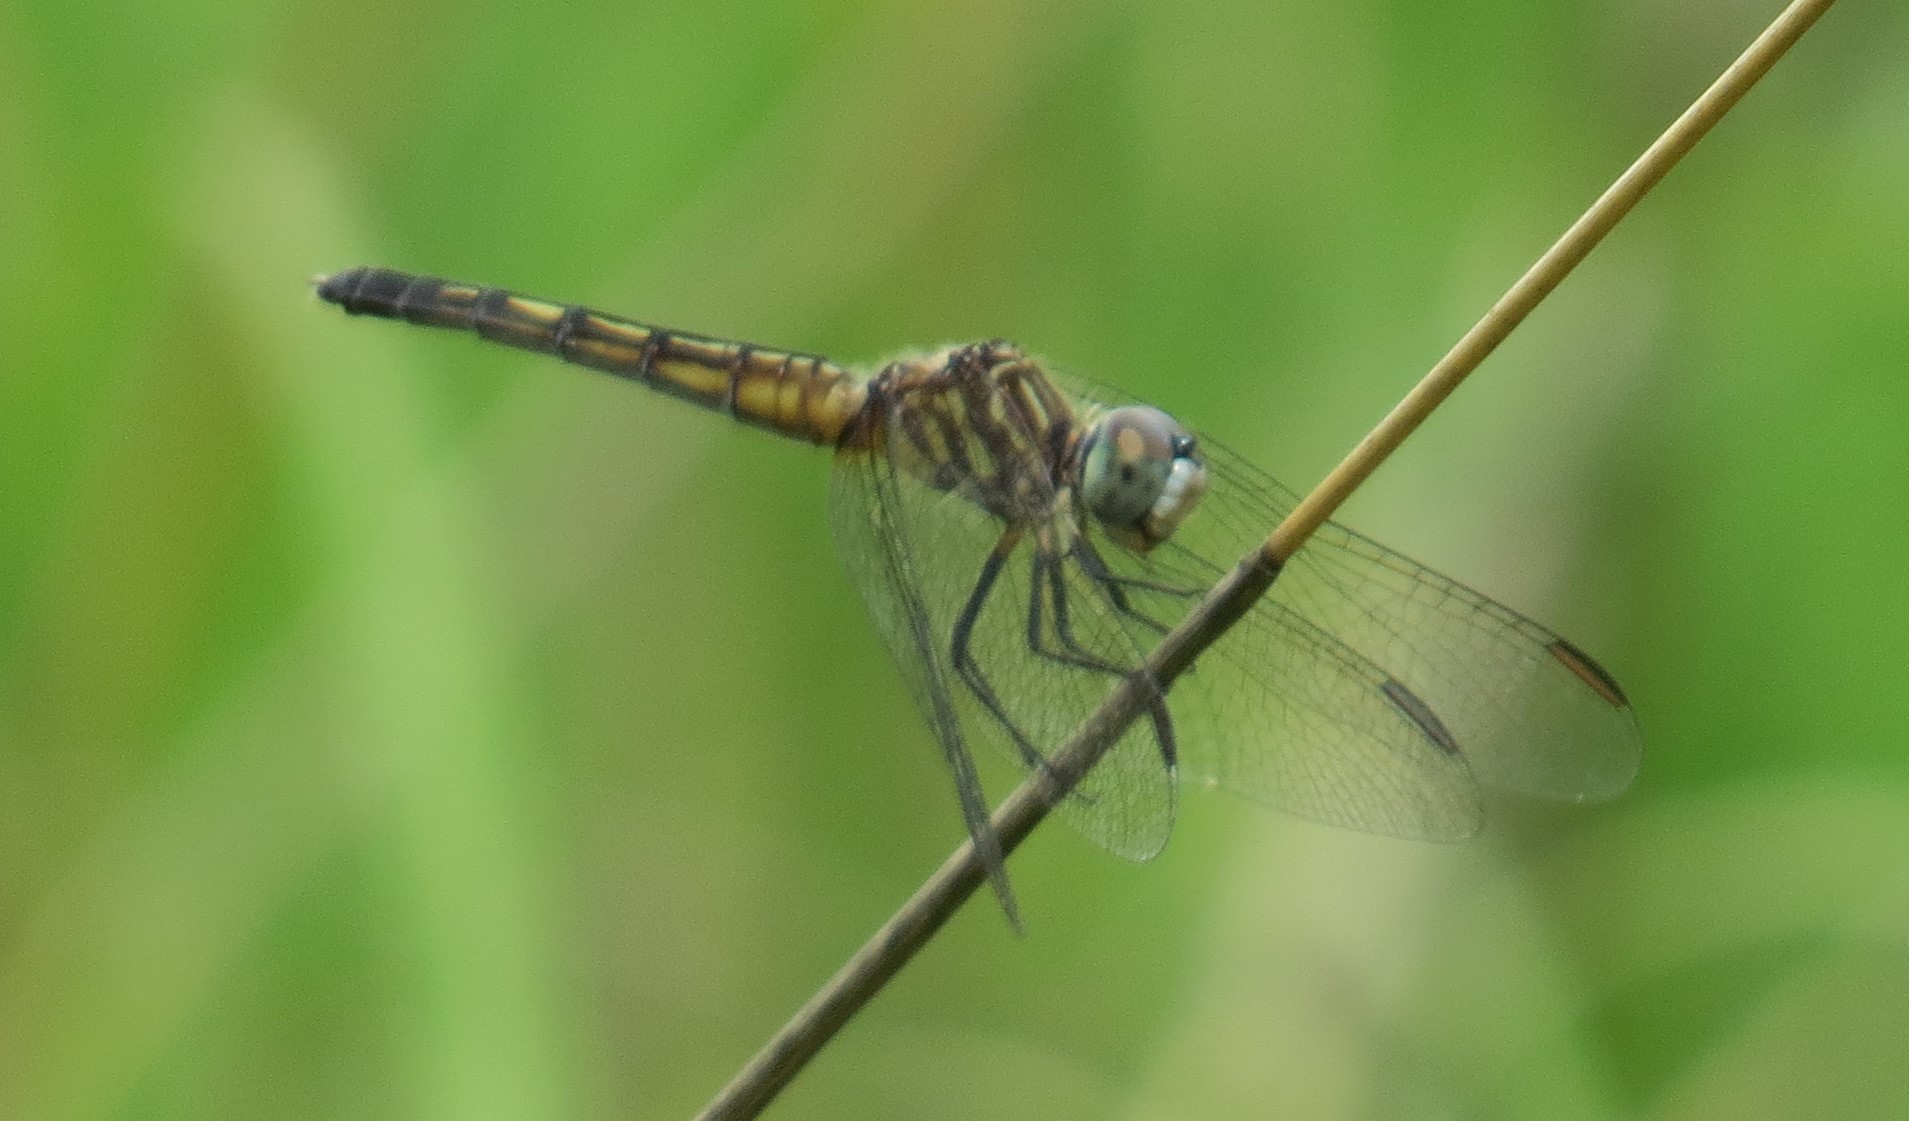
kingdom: Animalia
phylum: Arthropoda
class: Insecta
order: Odonata
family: Libellulidae
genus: Pachydiplax
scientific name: Pachydiplax longipennis
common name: Blue dasher
